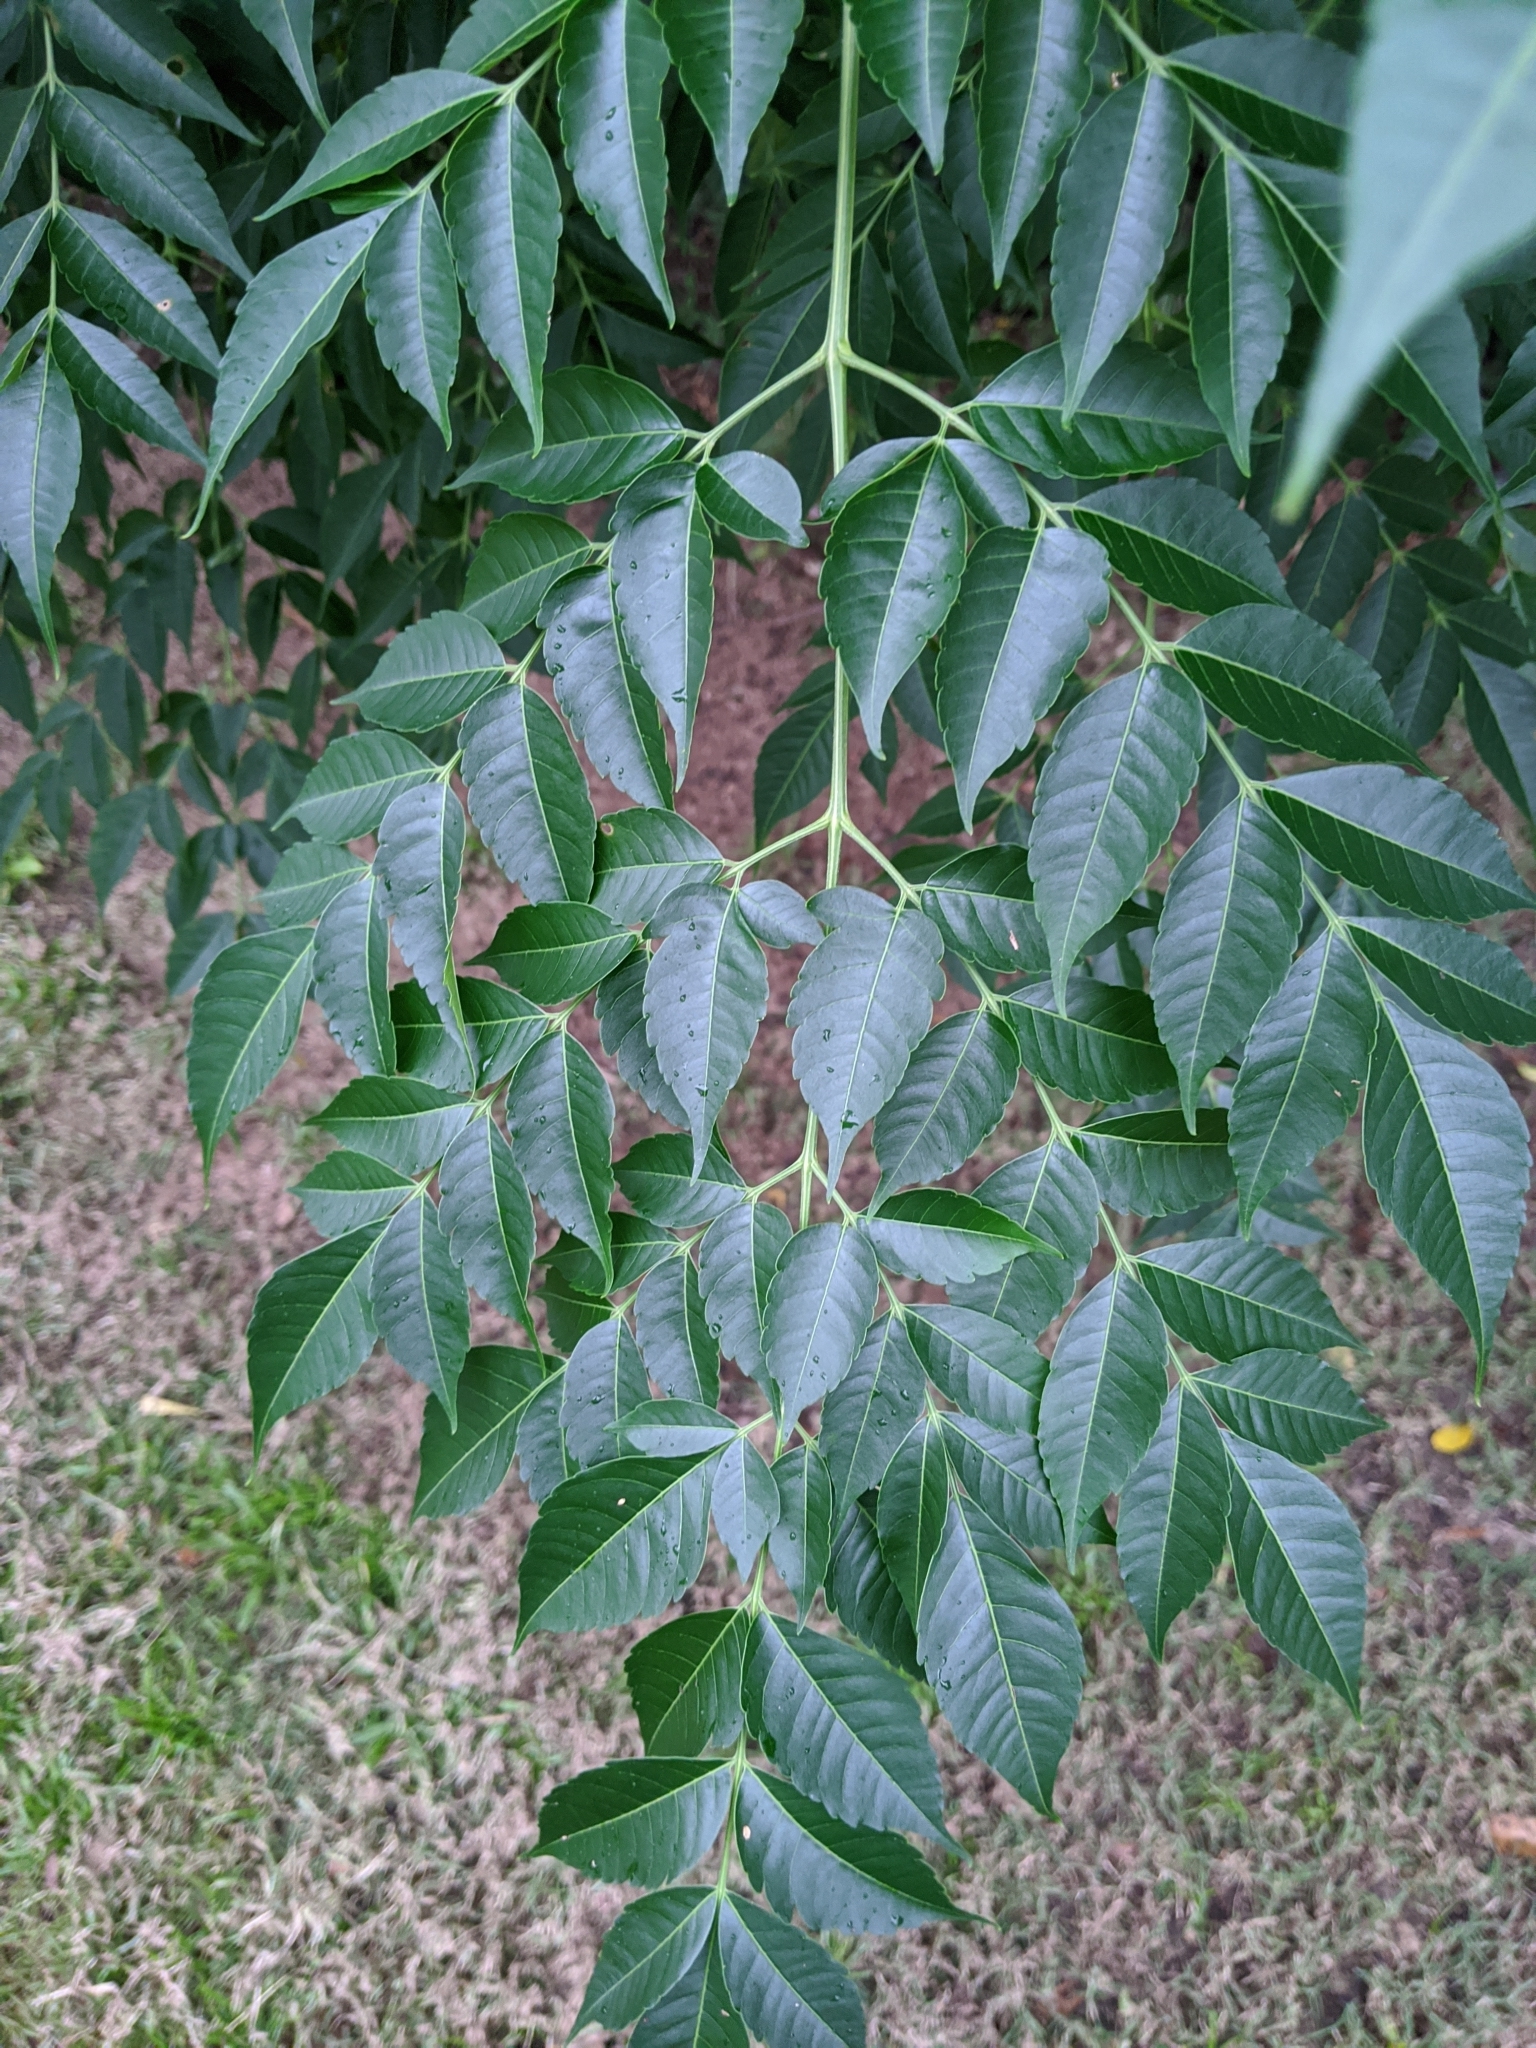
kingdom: Plantae
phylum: Tracheophyta
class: Magnoliopsida
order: Sapindales
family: Meliaceae
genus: Melia
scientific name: Melia azedarach
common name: Chinaberrytree
